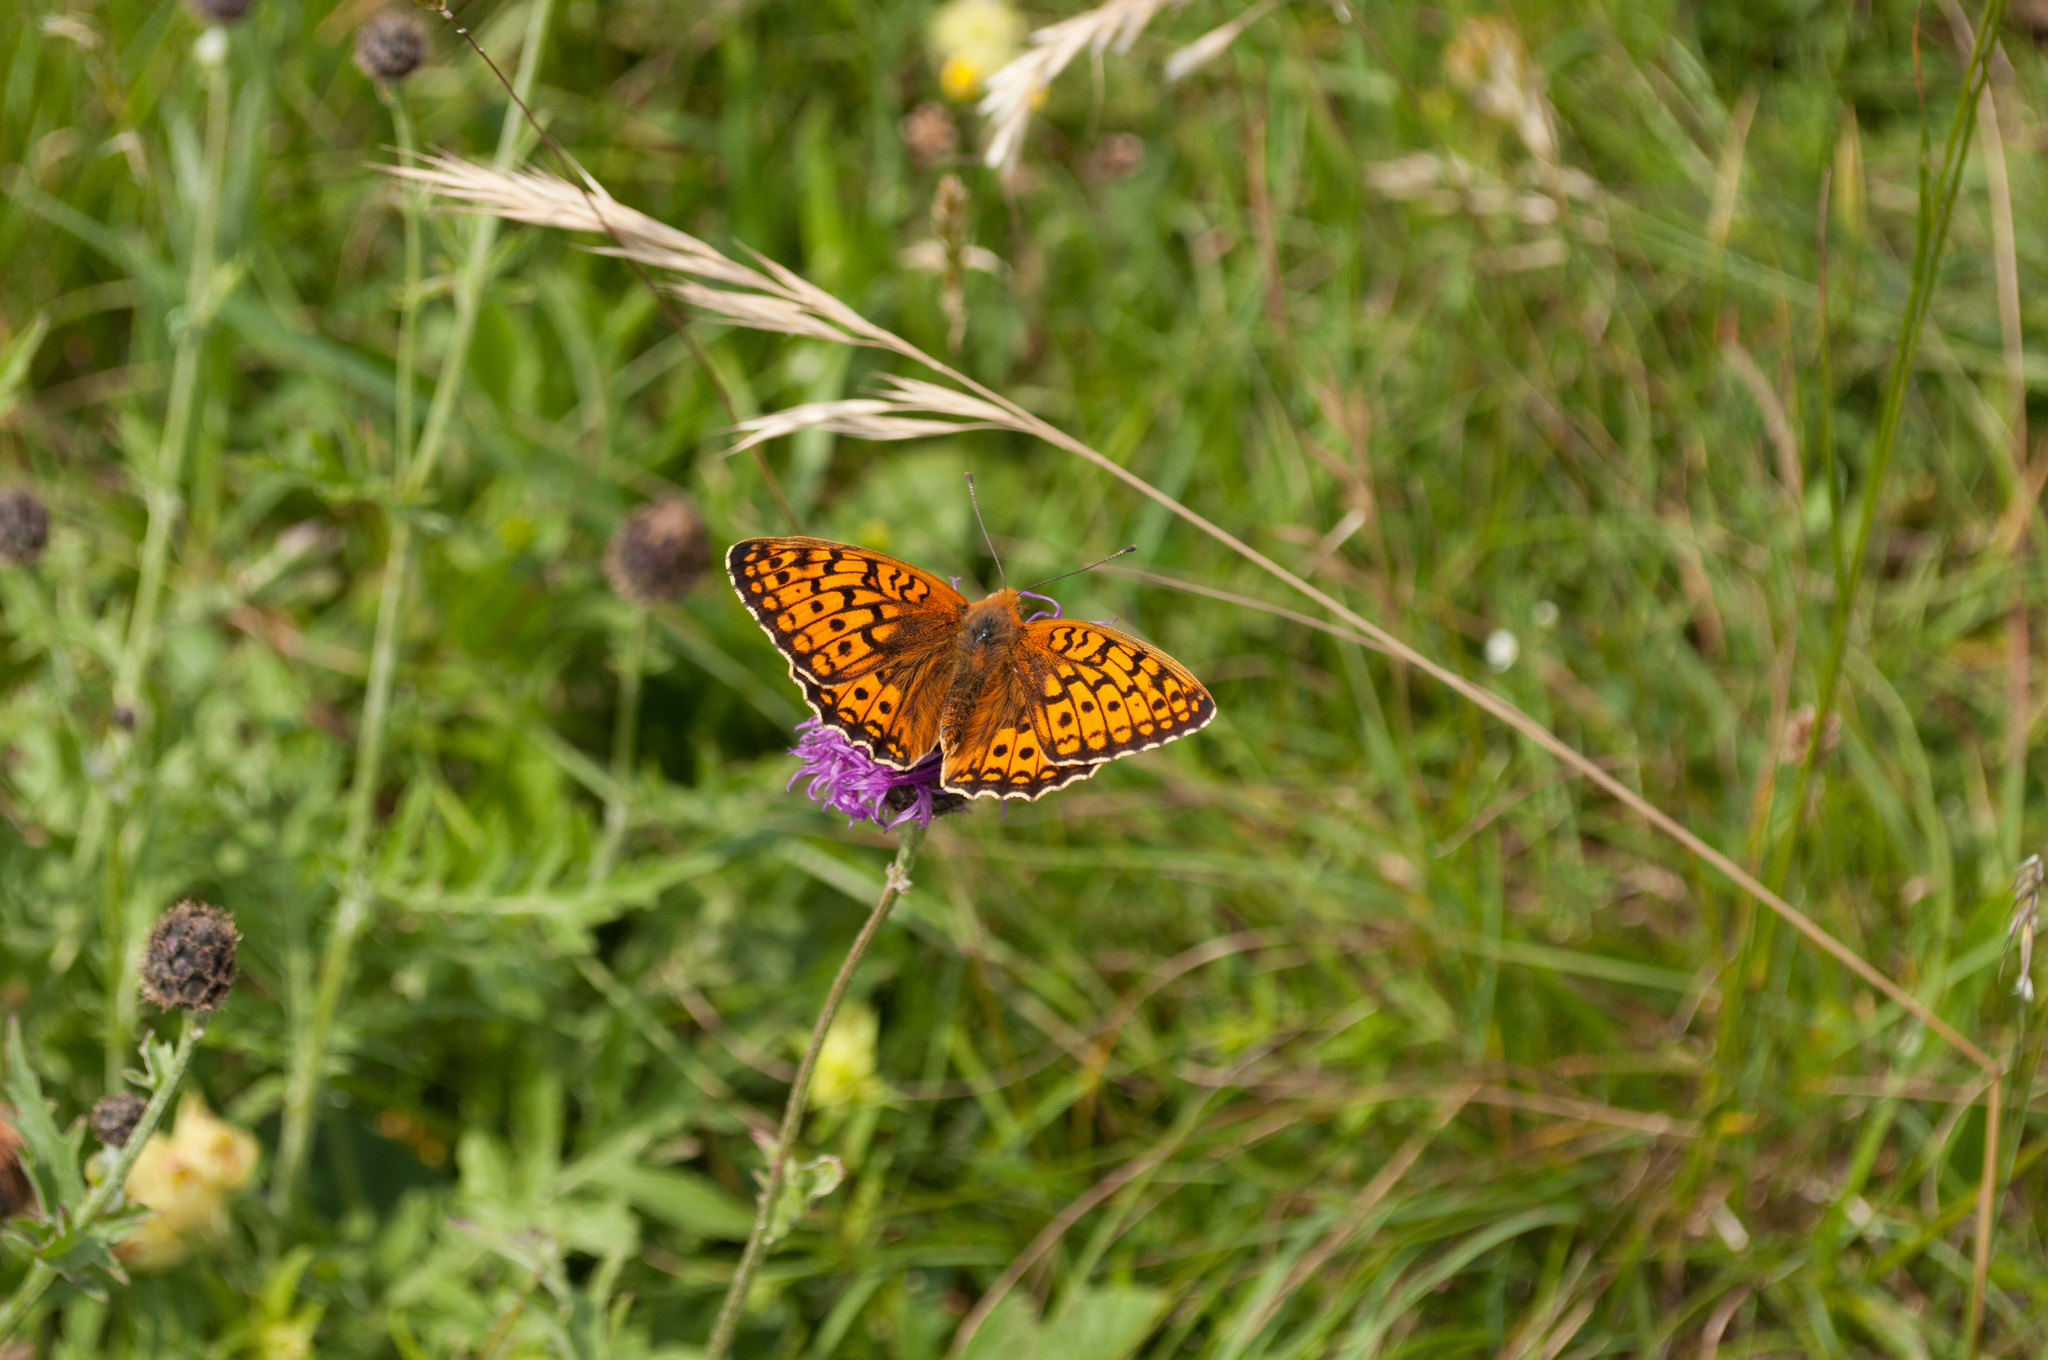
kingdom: Animalia
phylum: Arthropoda
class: Insecta
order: Lepidoptera
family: Nymphalidae
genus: Fabriciana
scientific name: Fabriciana niobe
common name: Niobe fritillary
